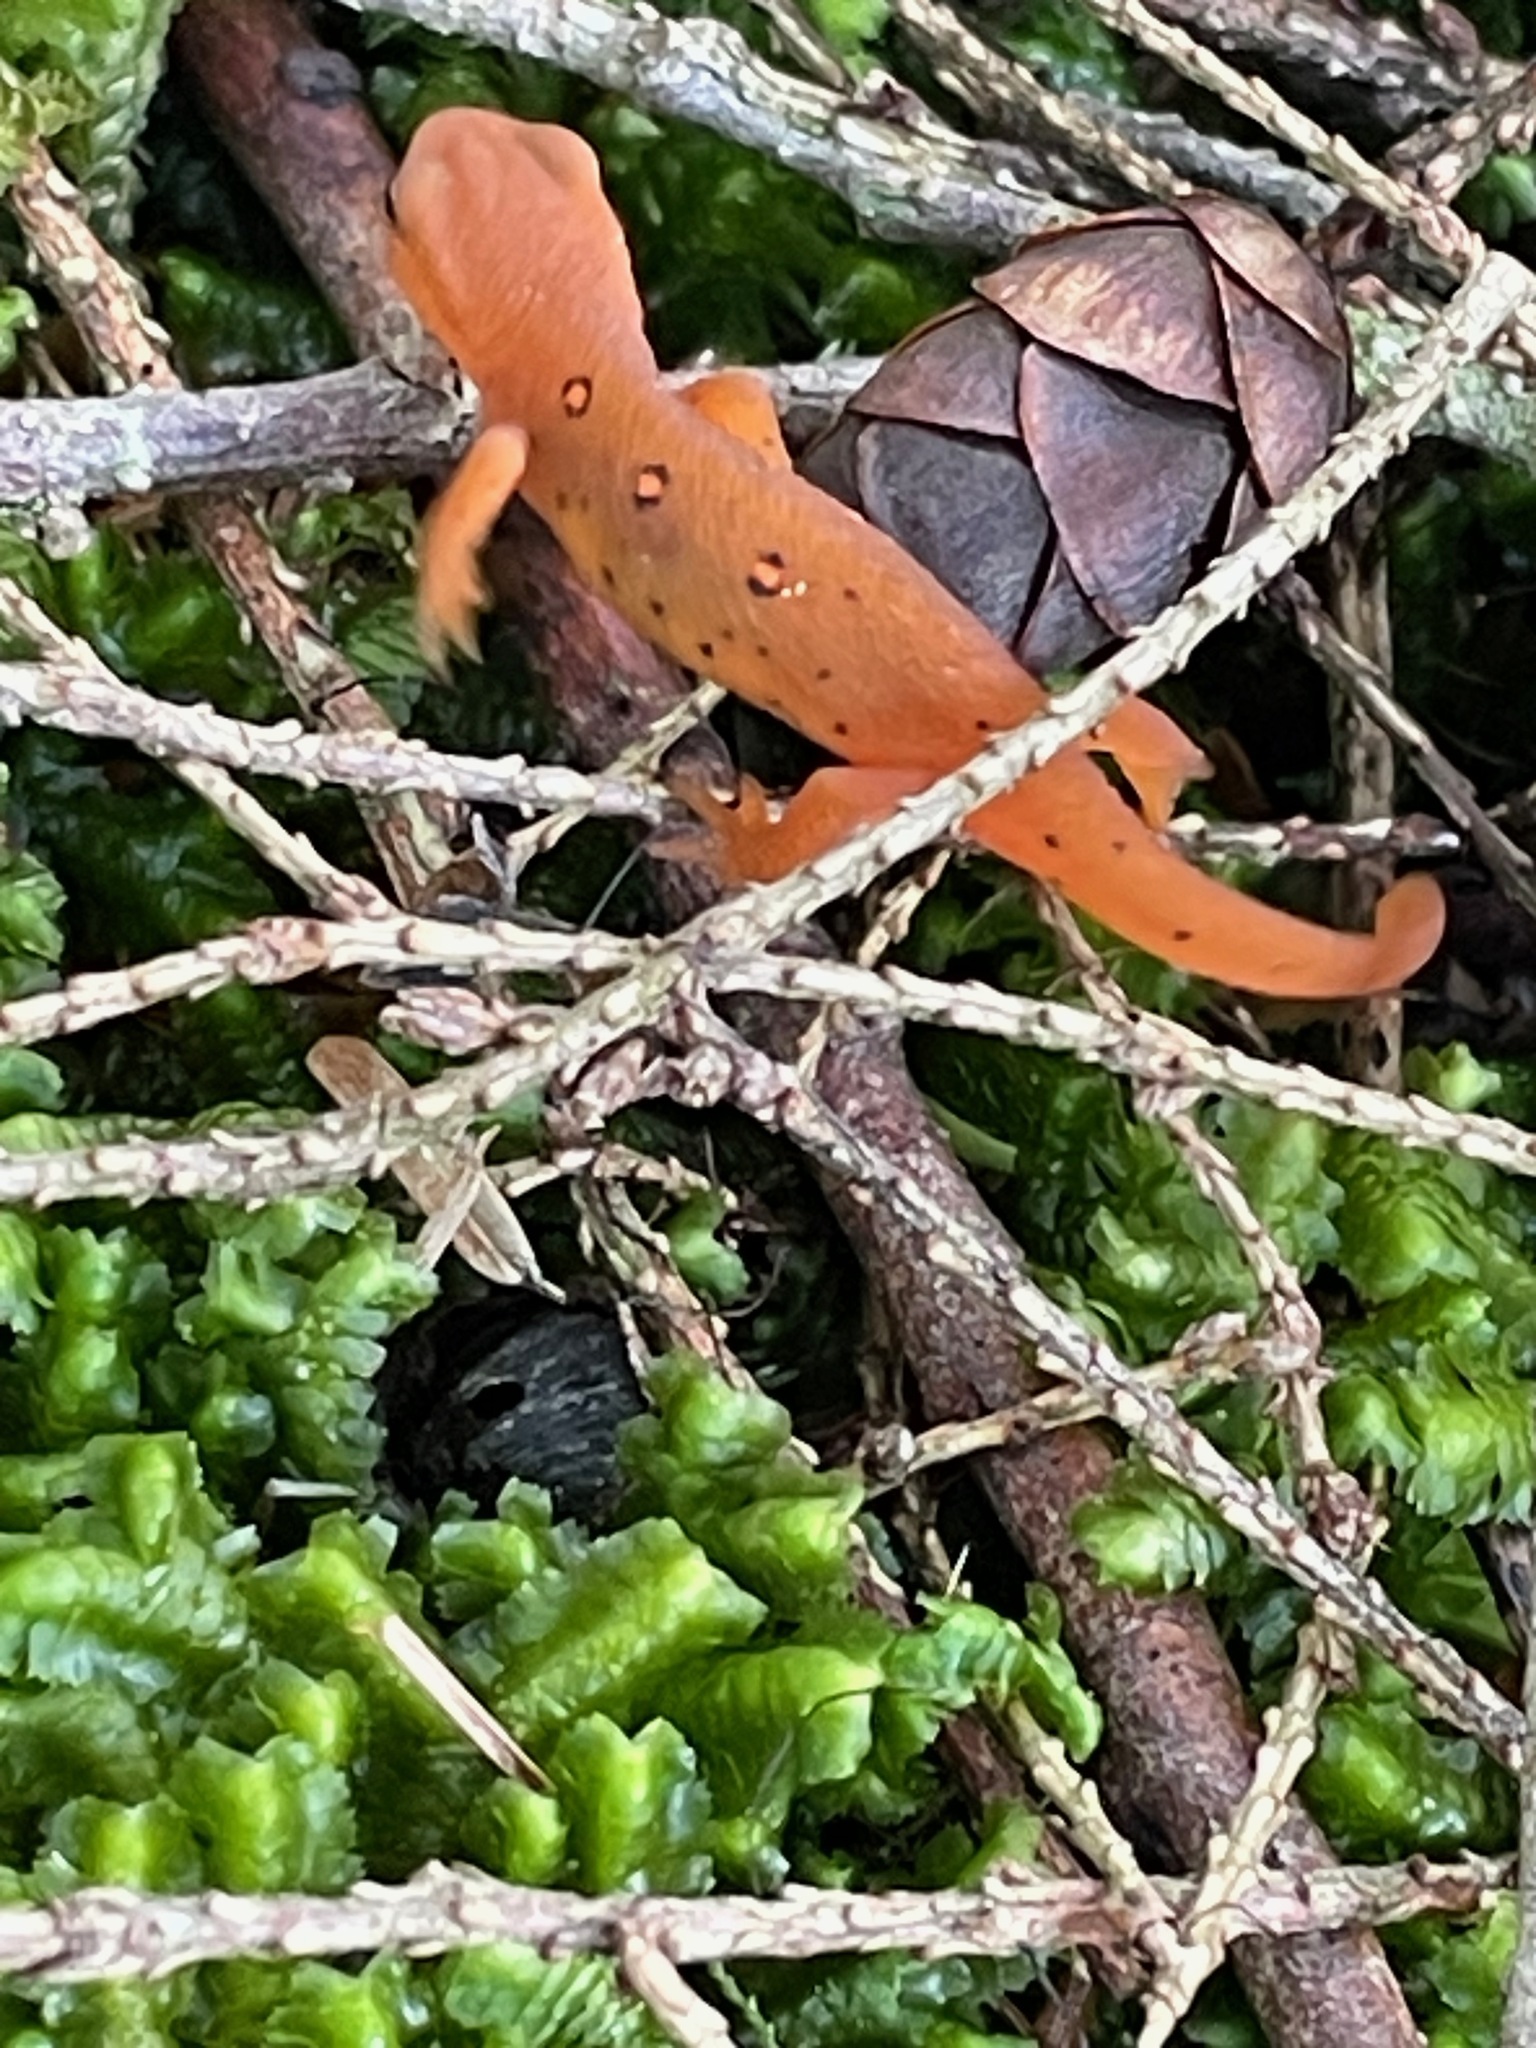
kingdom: Animalia
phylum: Chordata
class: Amphibia
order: Caudata
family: Salamandridae
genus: Notophthalmus
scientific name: Notophthalmus viridescens
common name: Eastern newt
